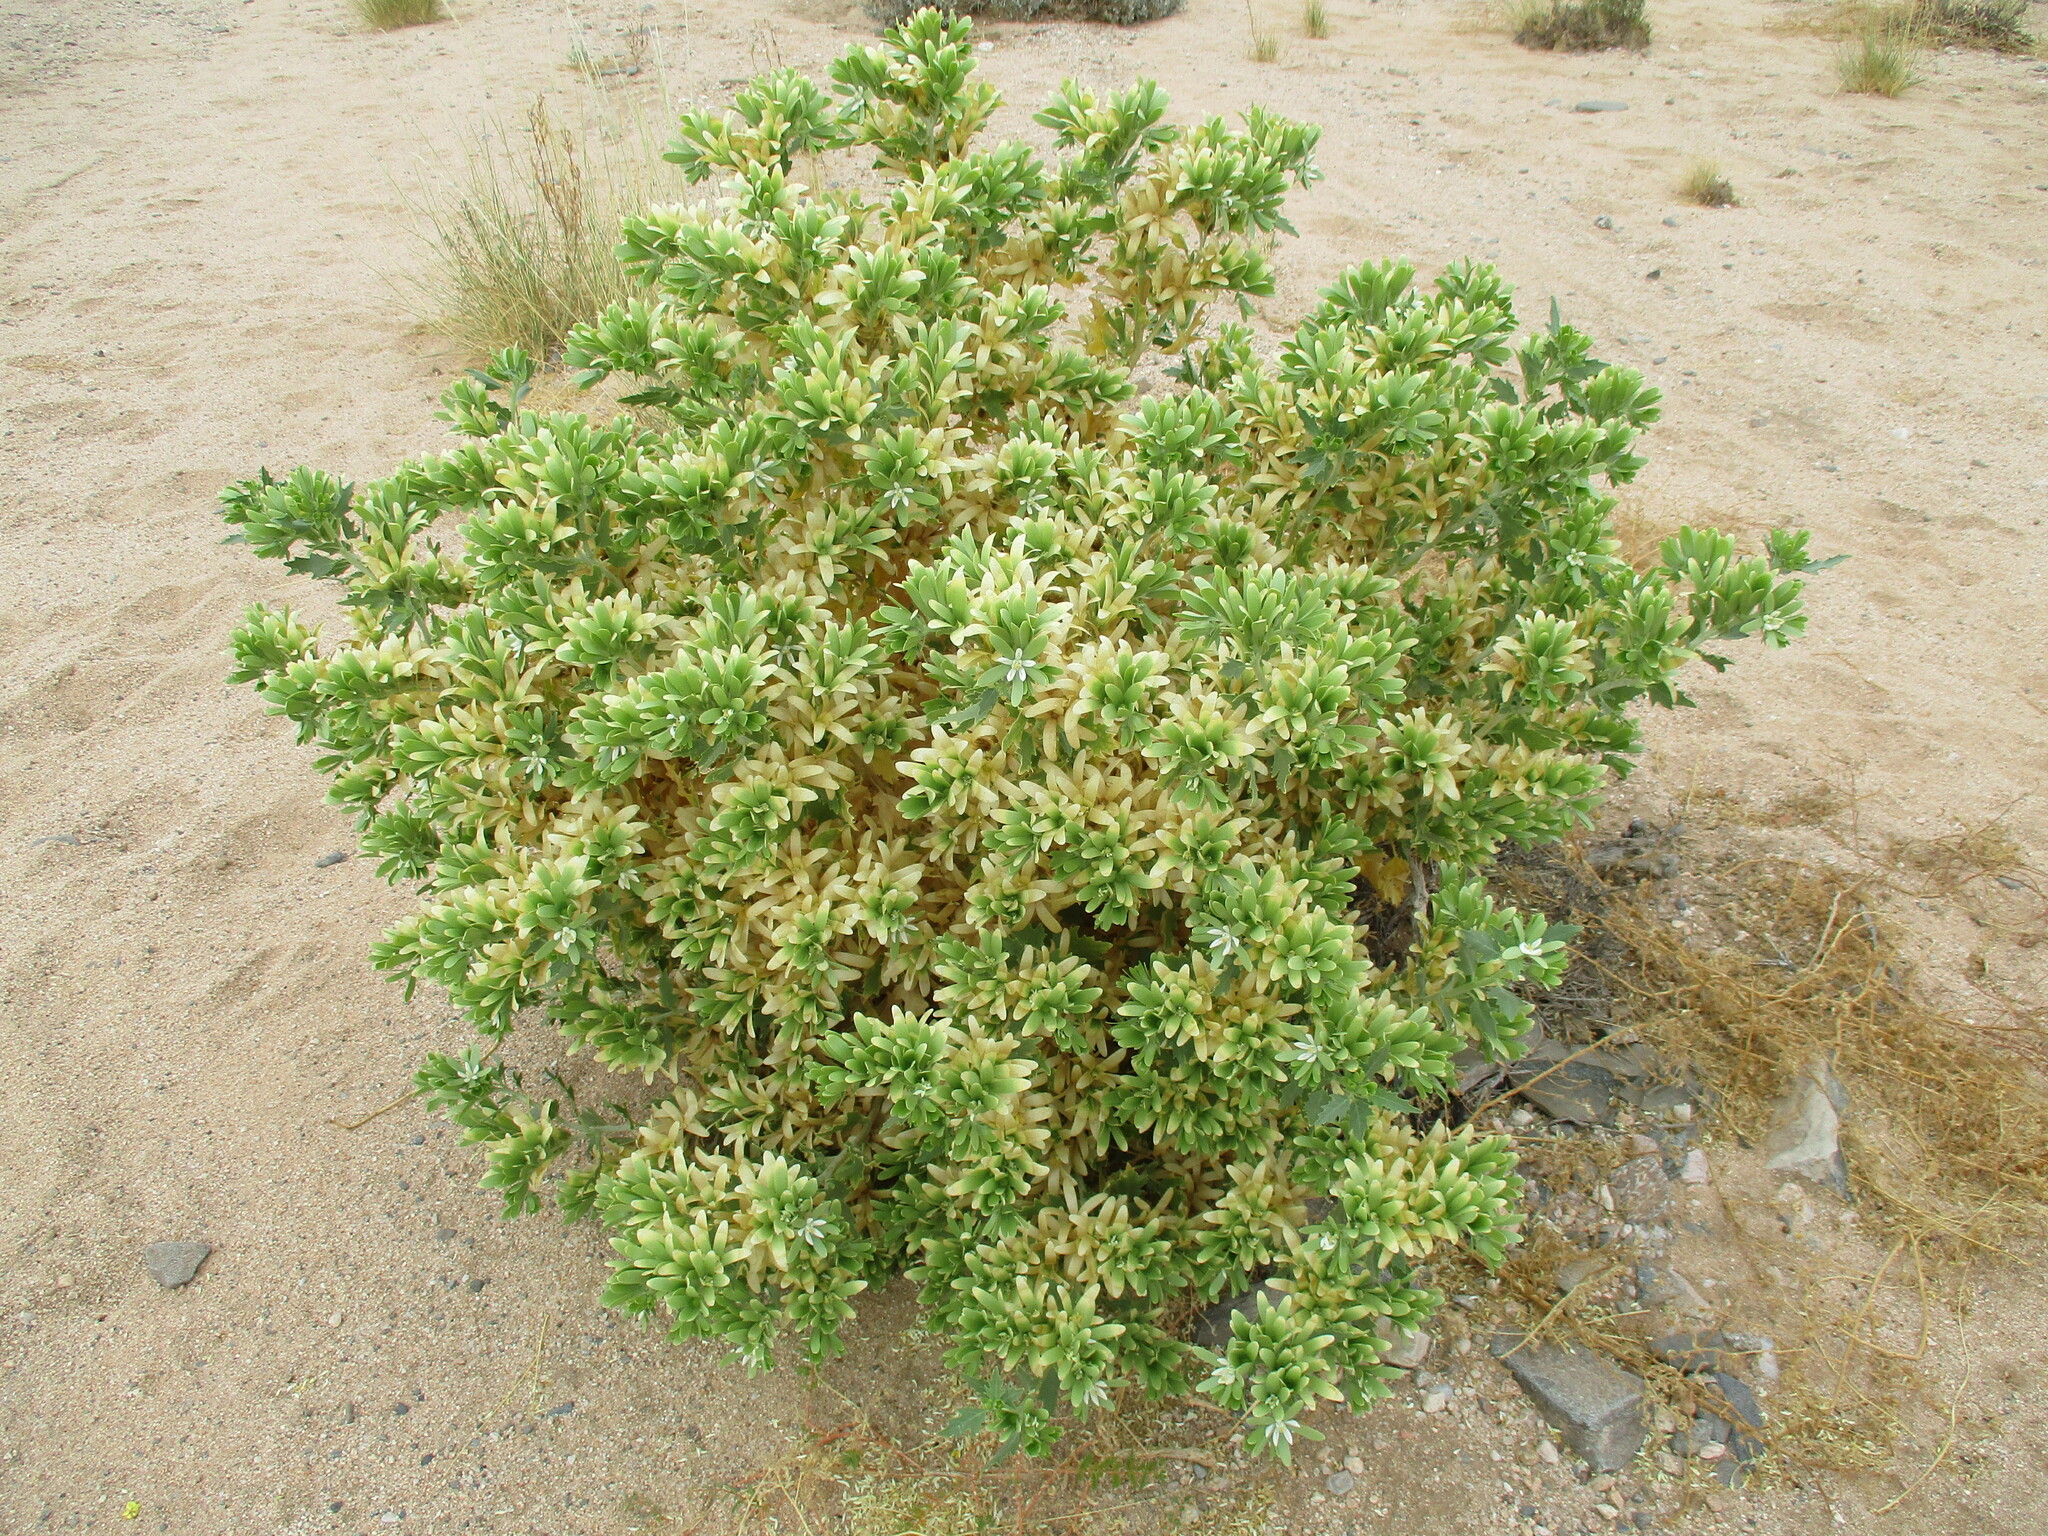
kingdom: Plantae
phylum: Tracheophyta
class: Magnoliopsida
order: Cornales
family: Loasaceae
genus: Kissenia
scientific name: Kissenia capensis
